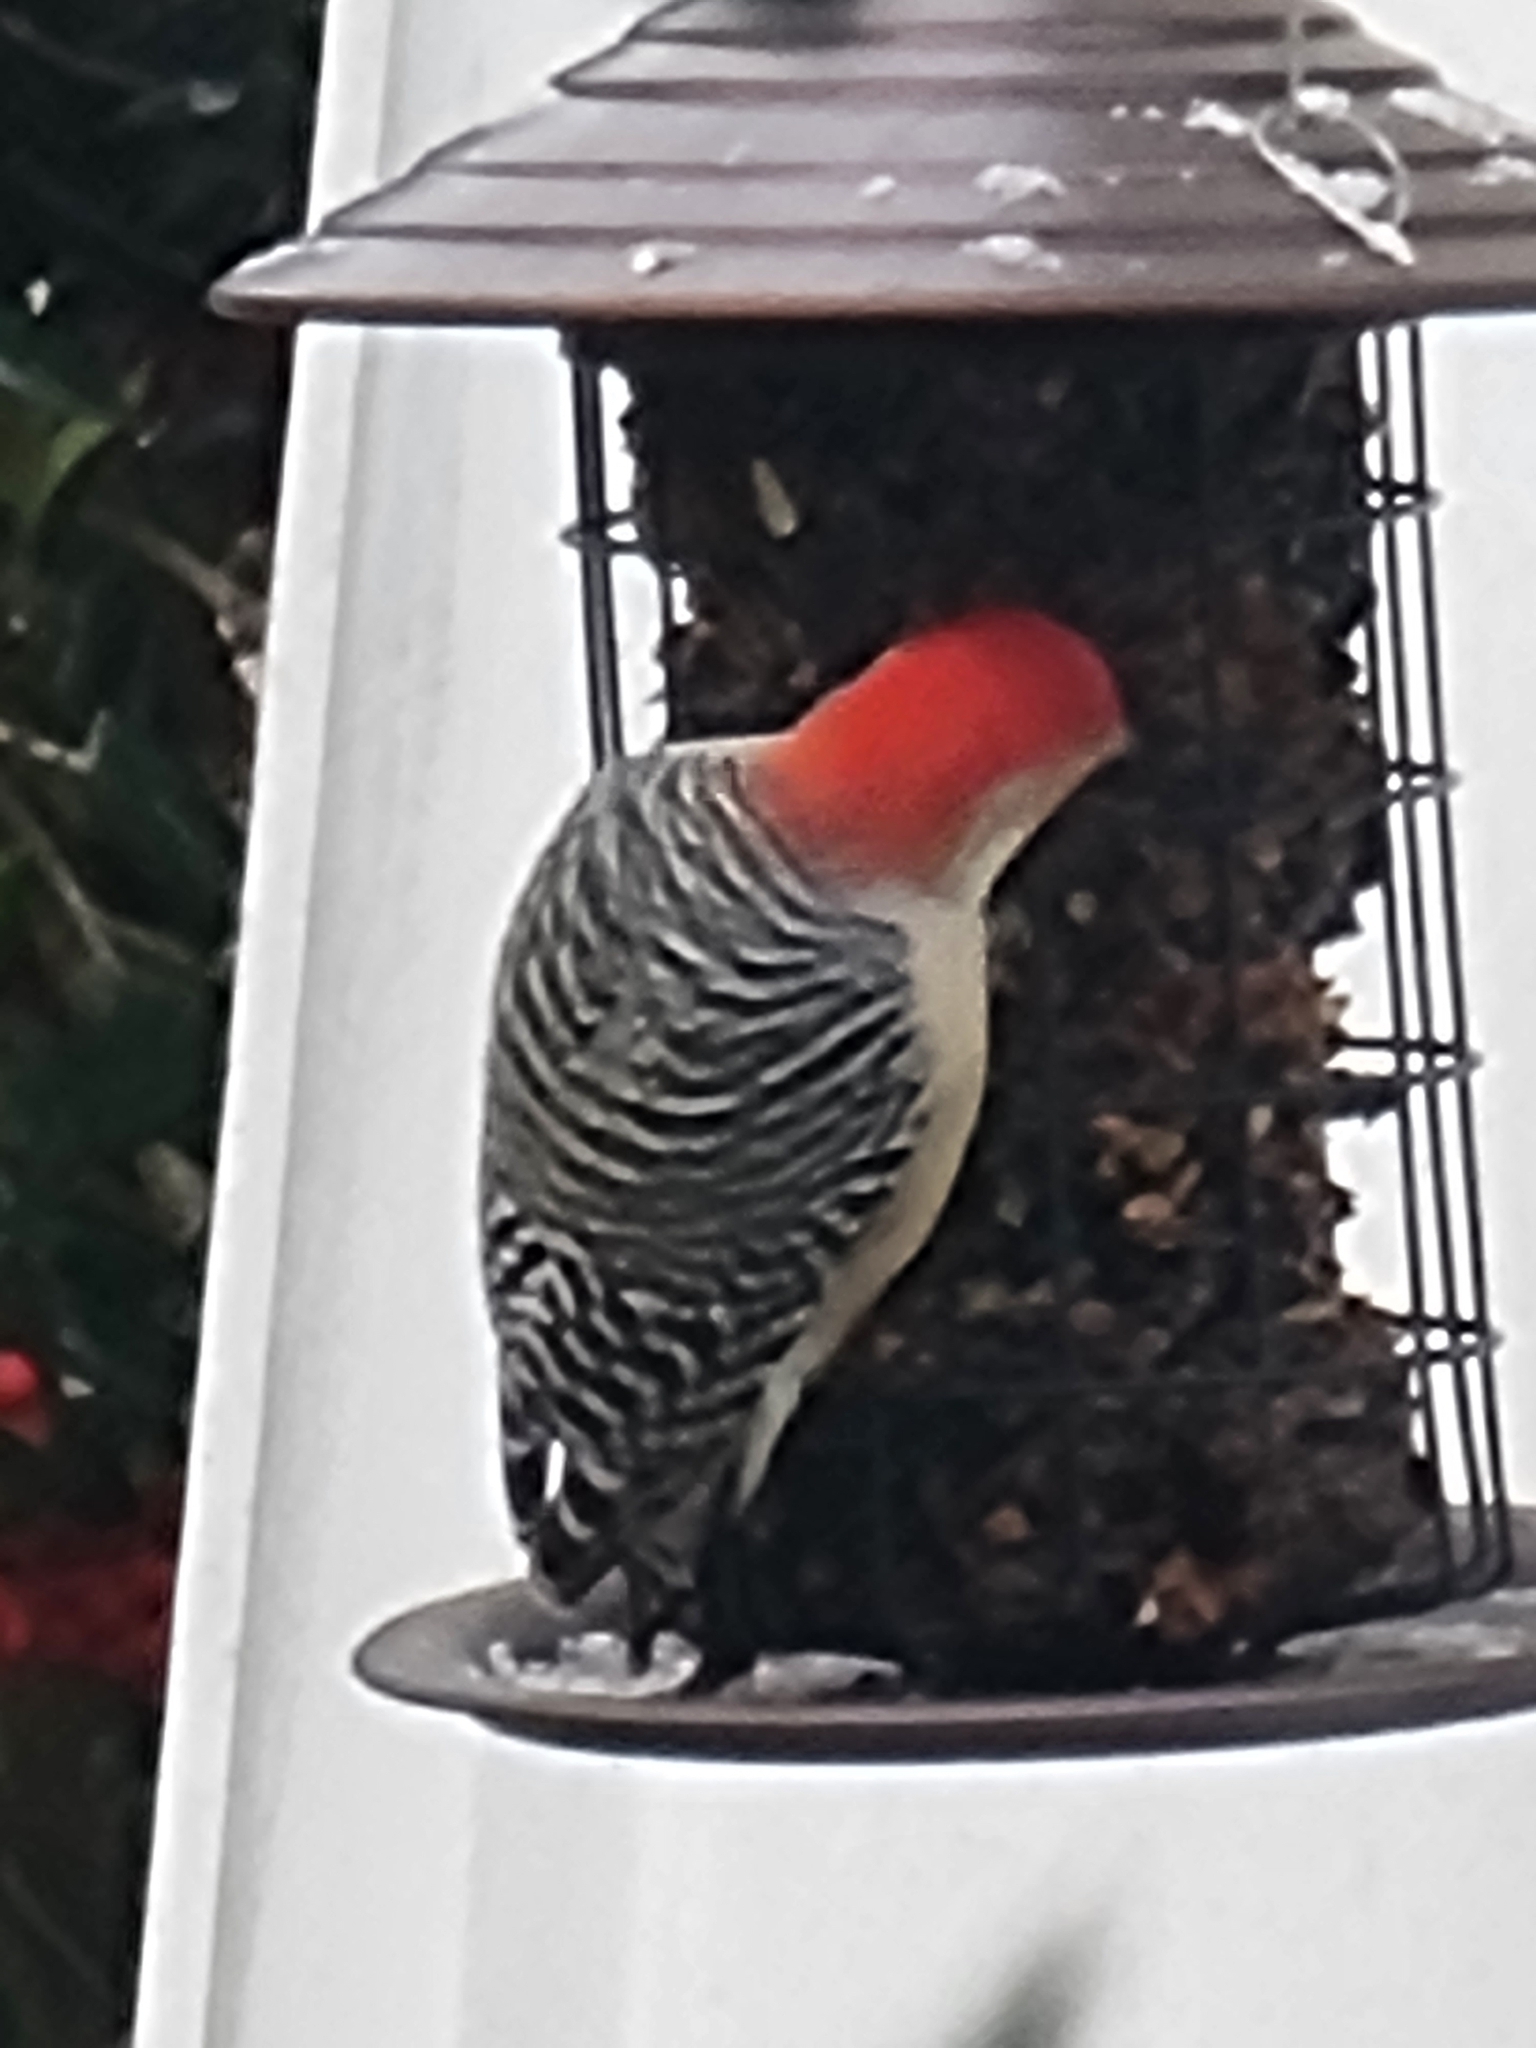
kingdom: Animalia
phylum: Chordata
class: Aves
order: Piciformes
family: Picidae
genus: Melanerpes
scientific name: Melanerpes carolinus
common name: Red-bellied woodpecker
